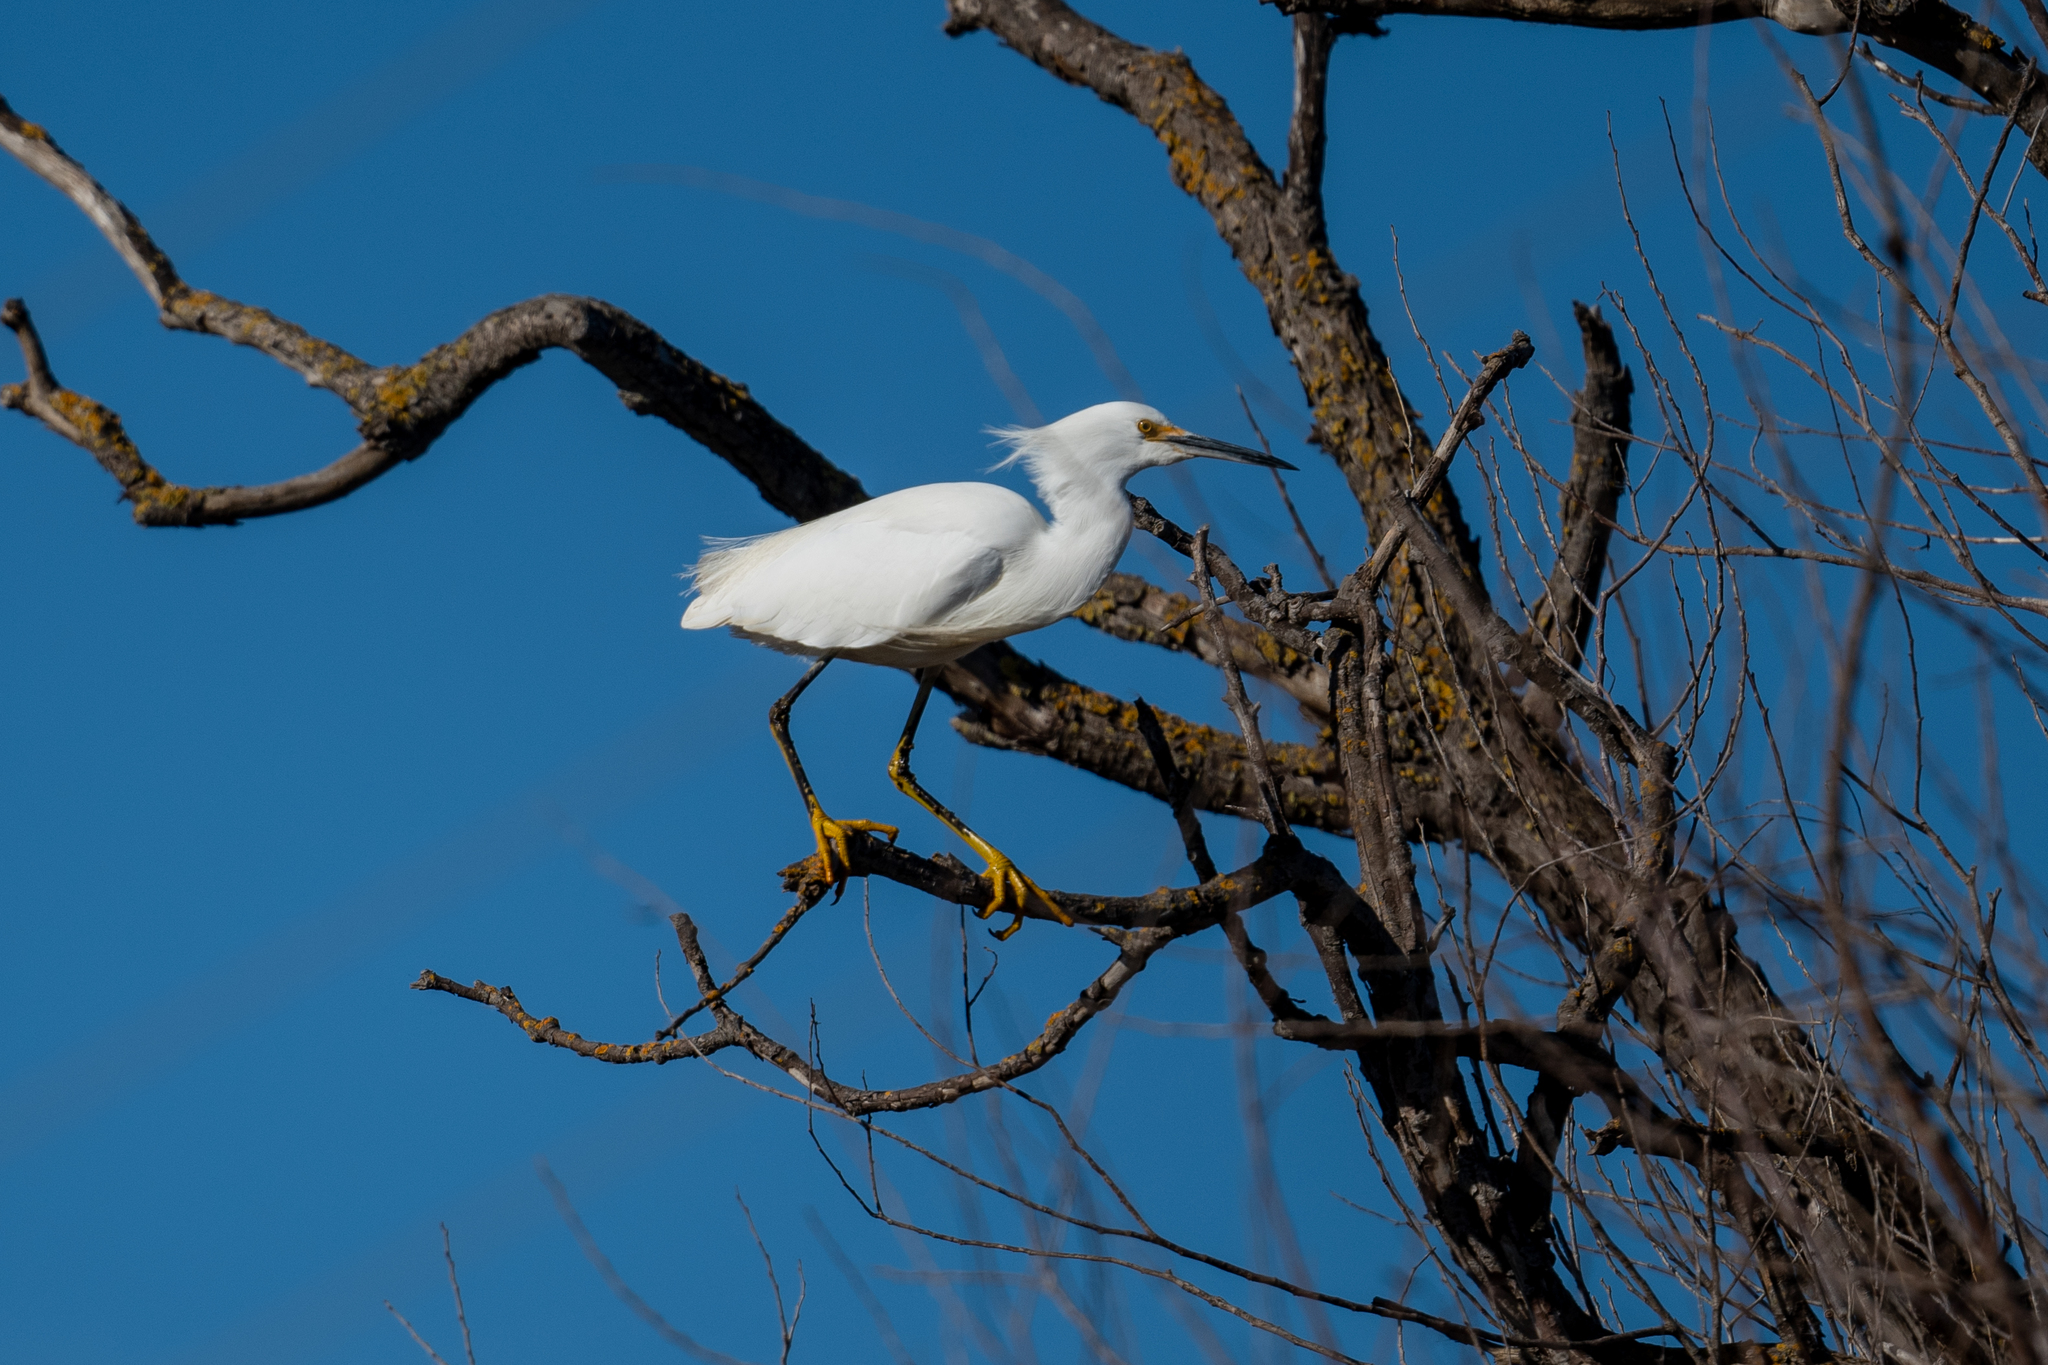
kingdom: Animalia
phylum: Chordata
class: Aves
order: Pelecaniformes
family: Ardeidae
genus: Egretta
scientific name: Egretta thula
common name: Snowy egret
